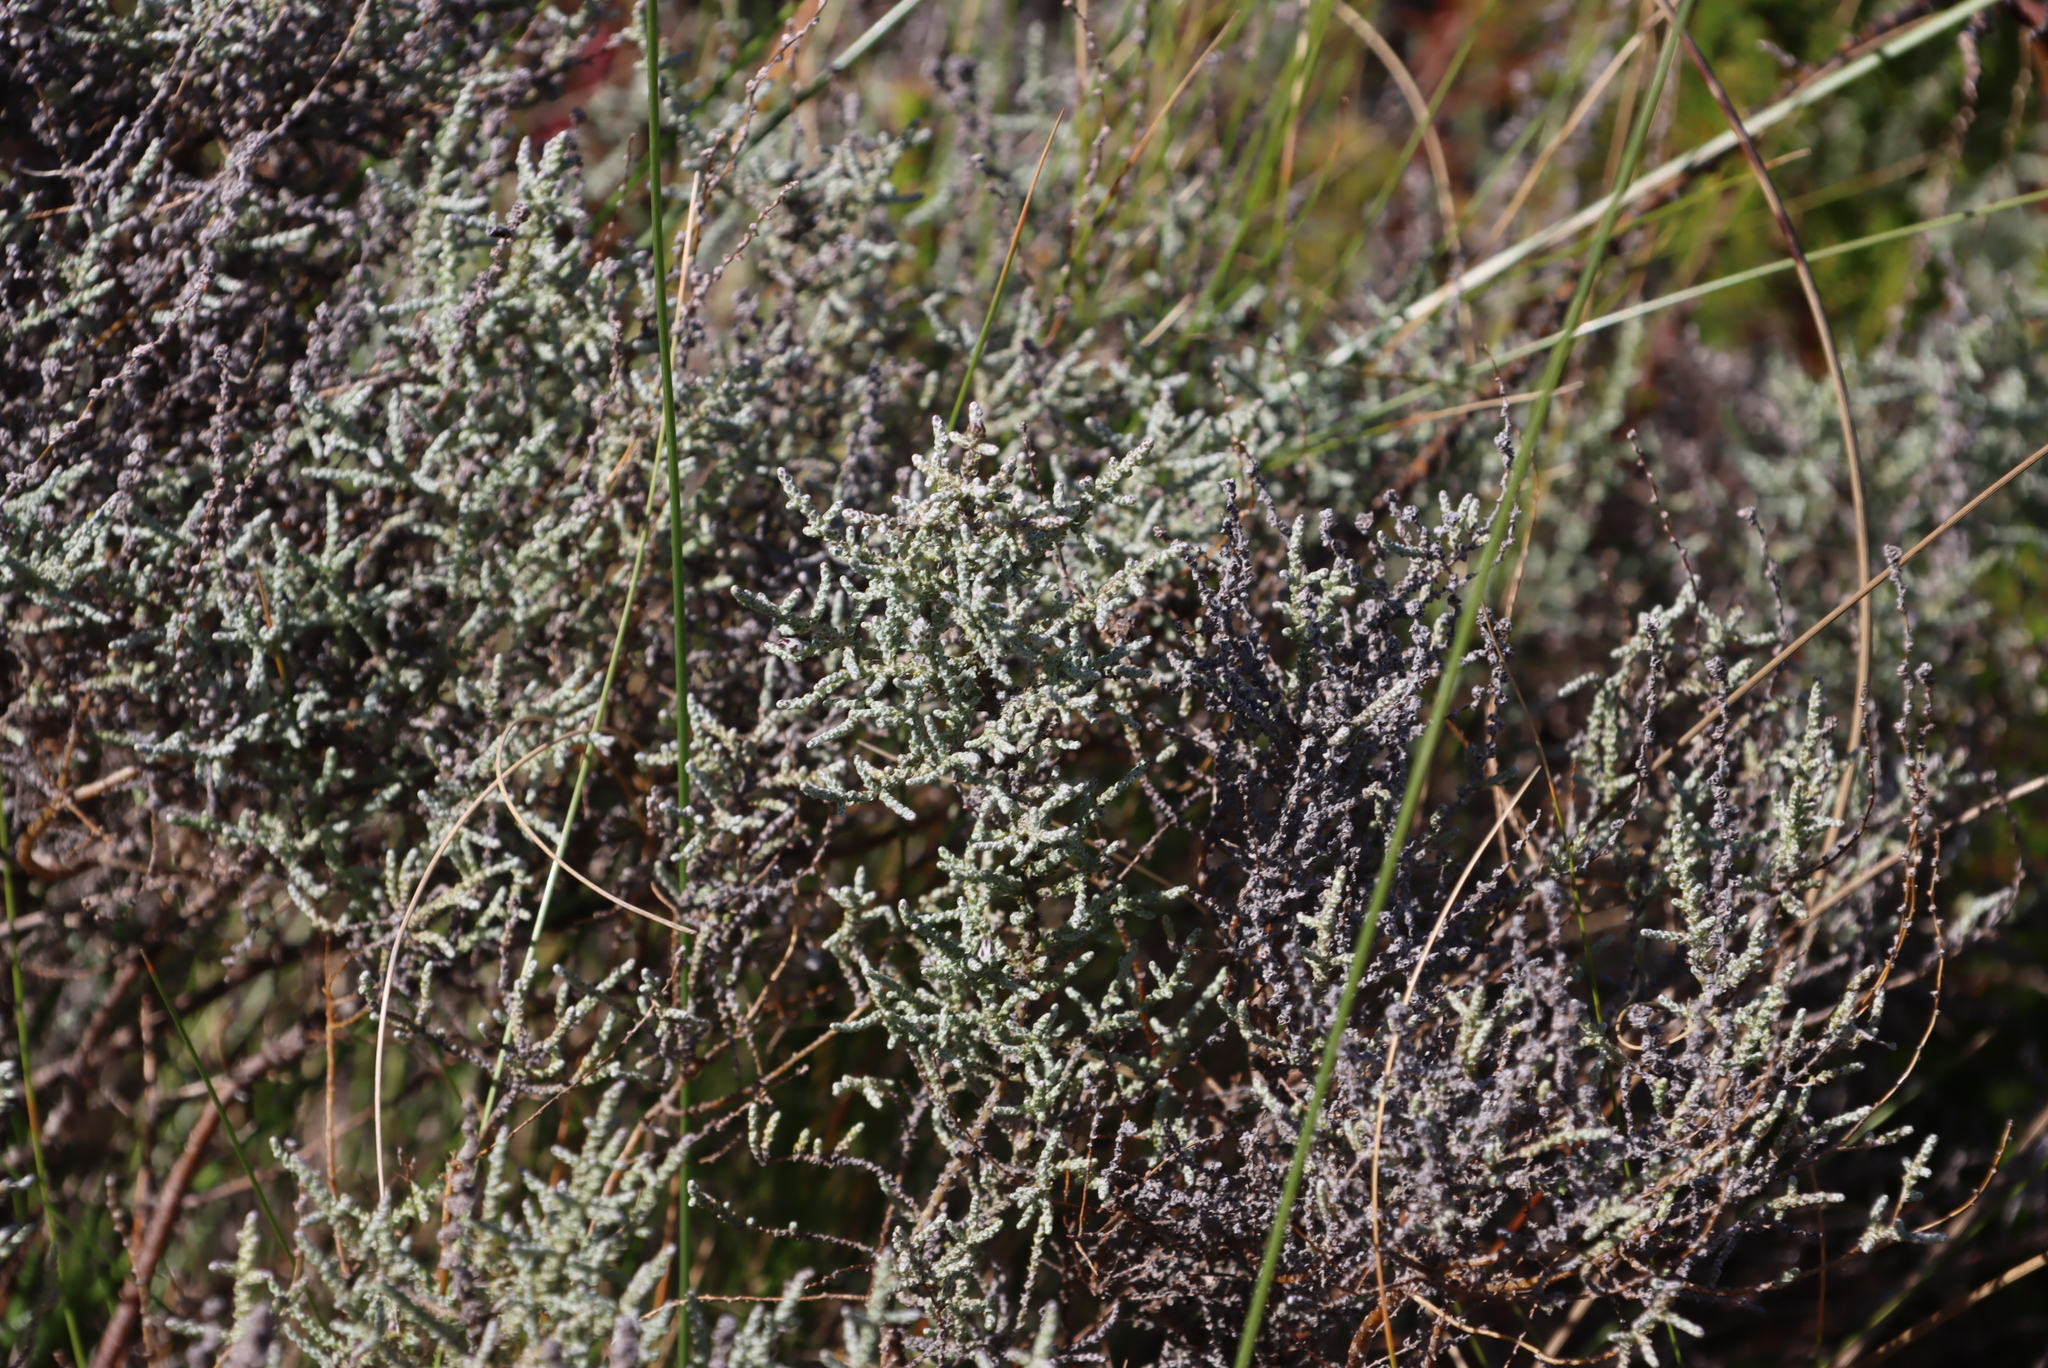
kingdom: Plantae
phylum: Tracheophyta
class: Magnoliopsida
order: Asterales
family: Asteraceae
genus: Seriphium
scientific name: Seriphium plumosum
